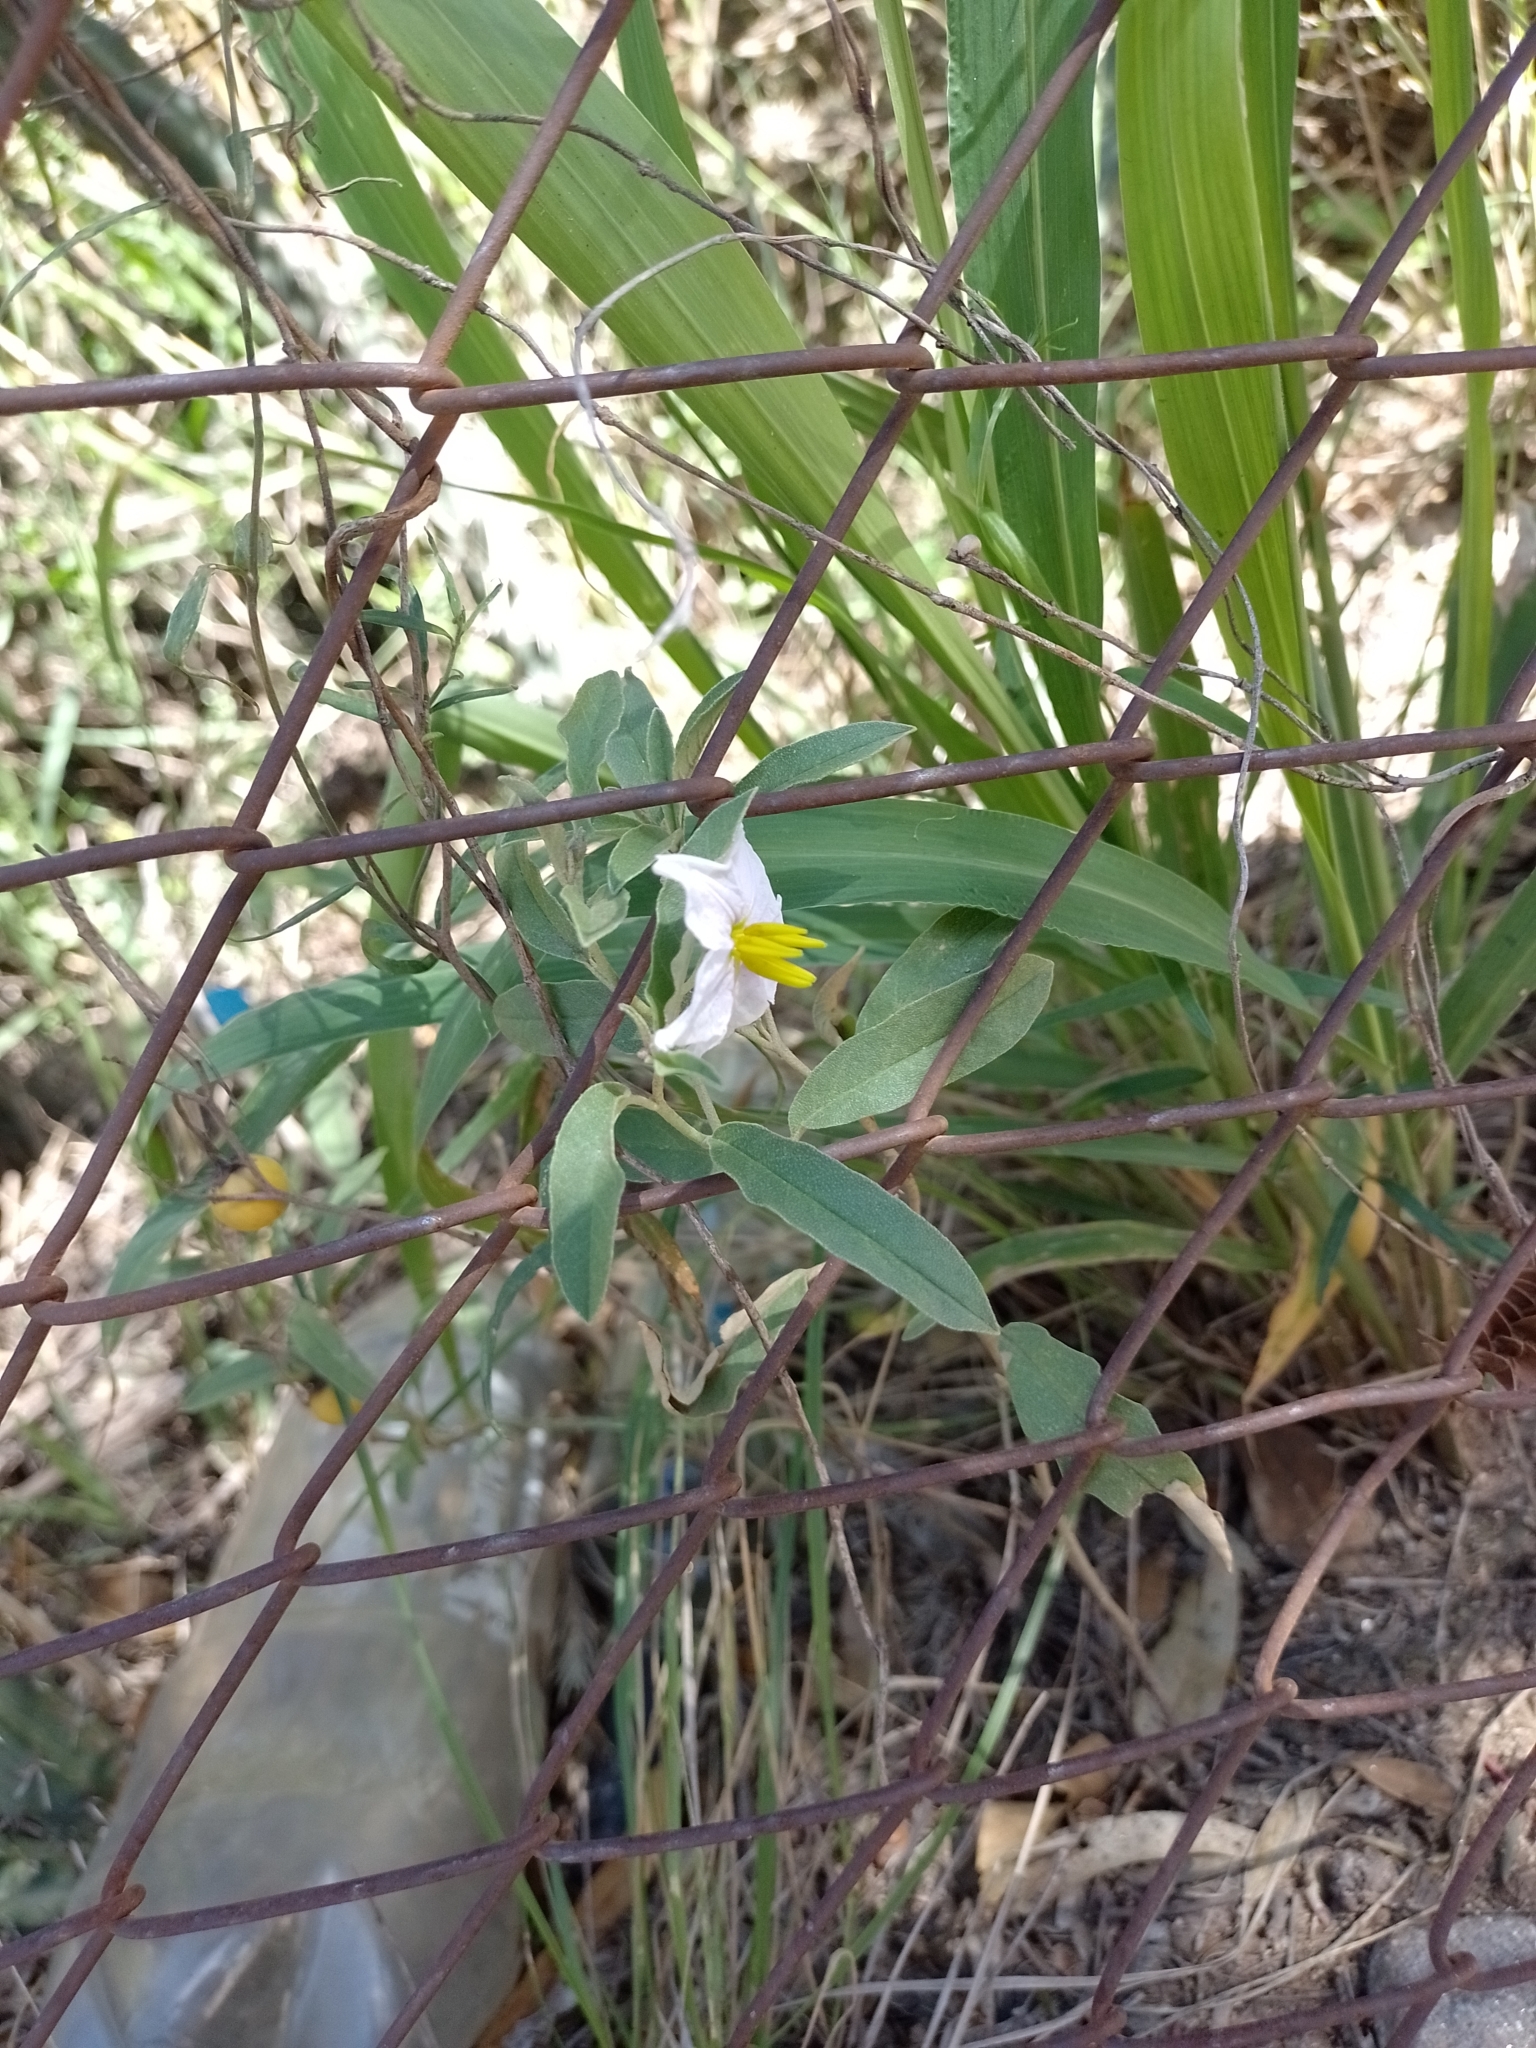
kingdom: Plantae
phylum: Tracheophyta
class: Magnoliopsida
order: Solanales
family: Solanaceae
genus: Solanum
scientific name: Solanum elaeagnifolium
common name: Silverleaf nightshade
